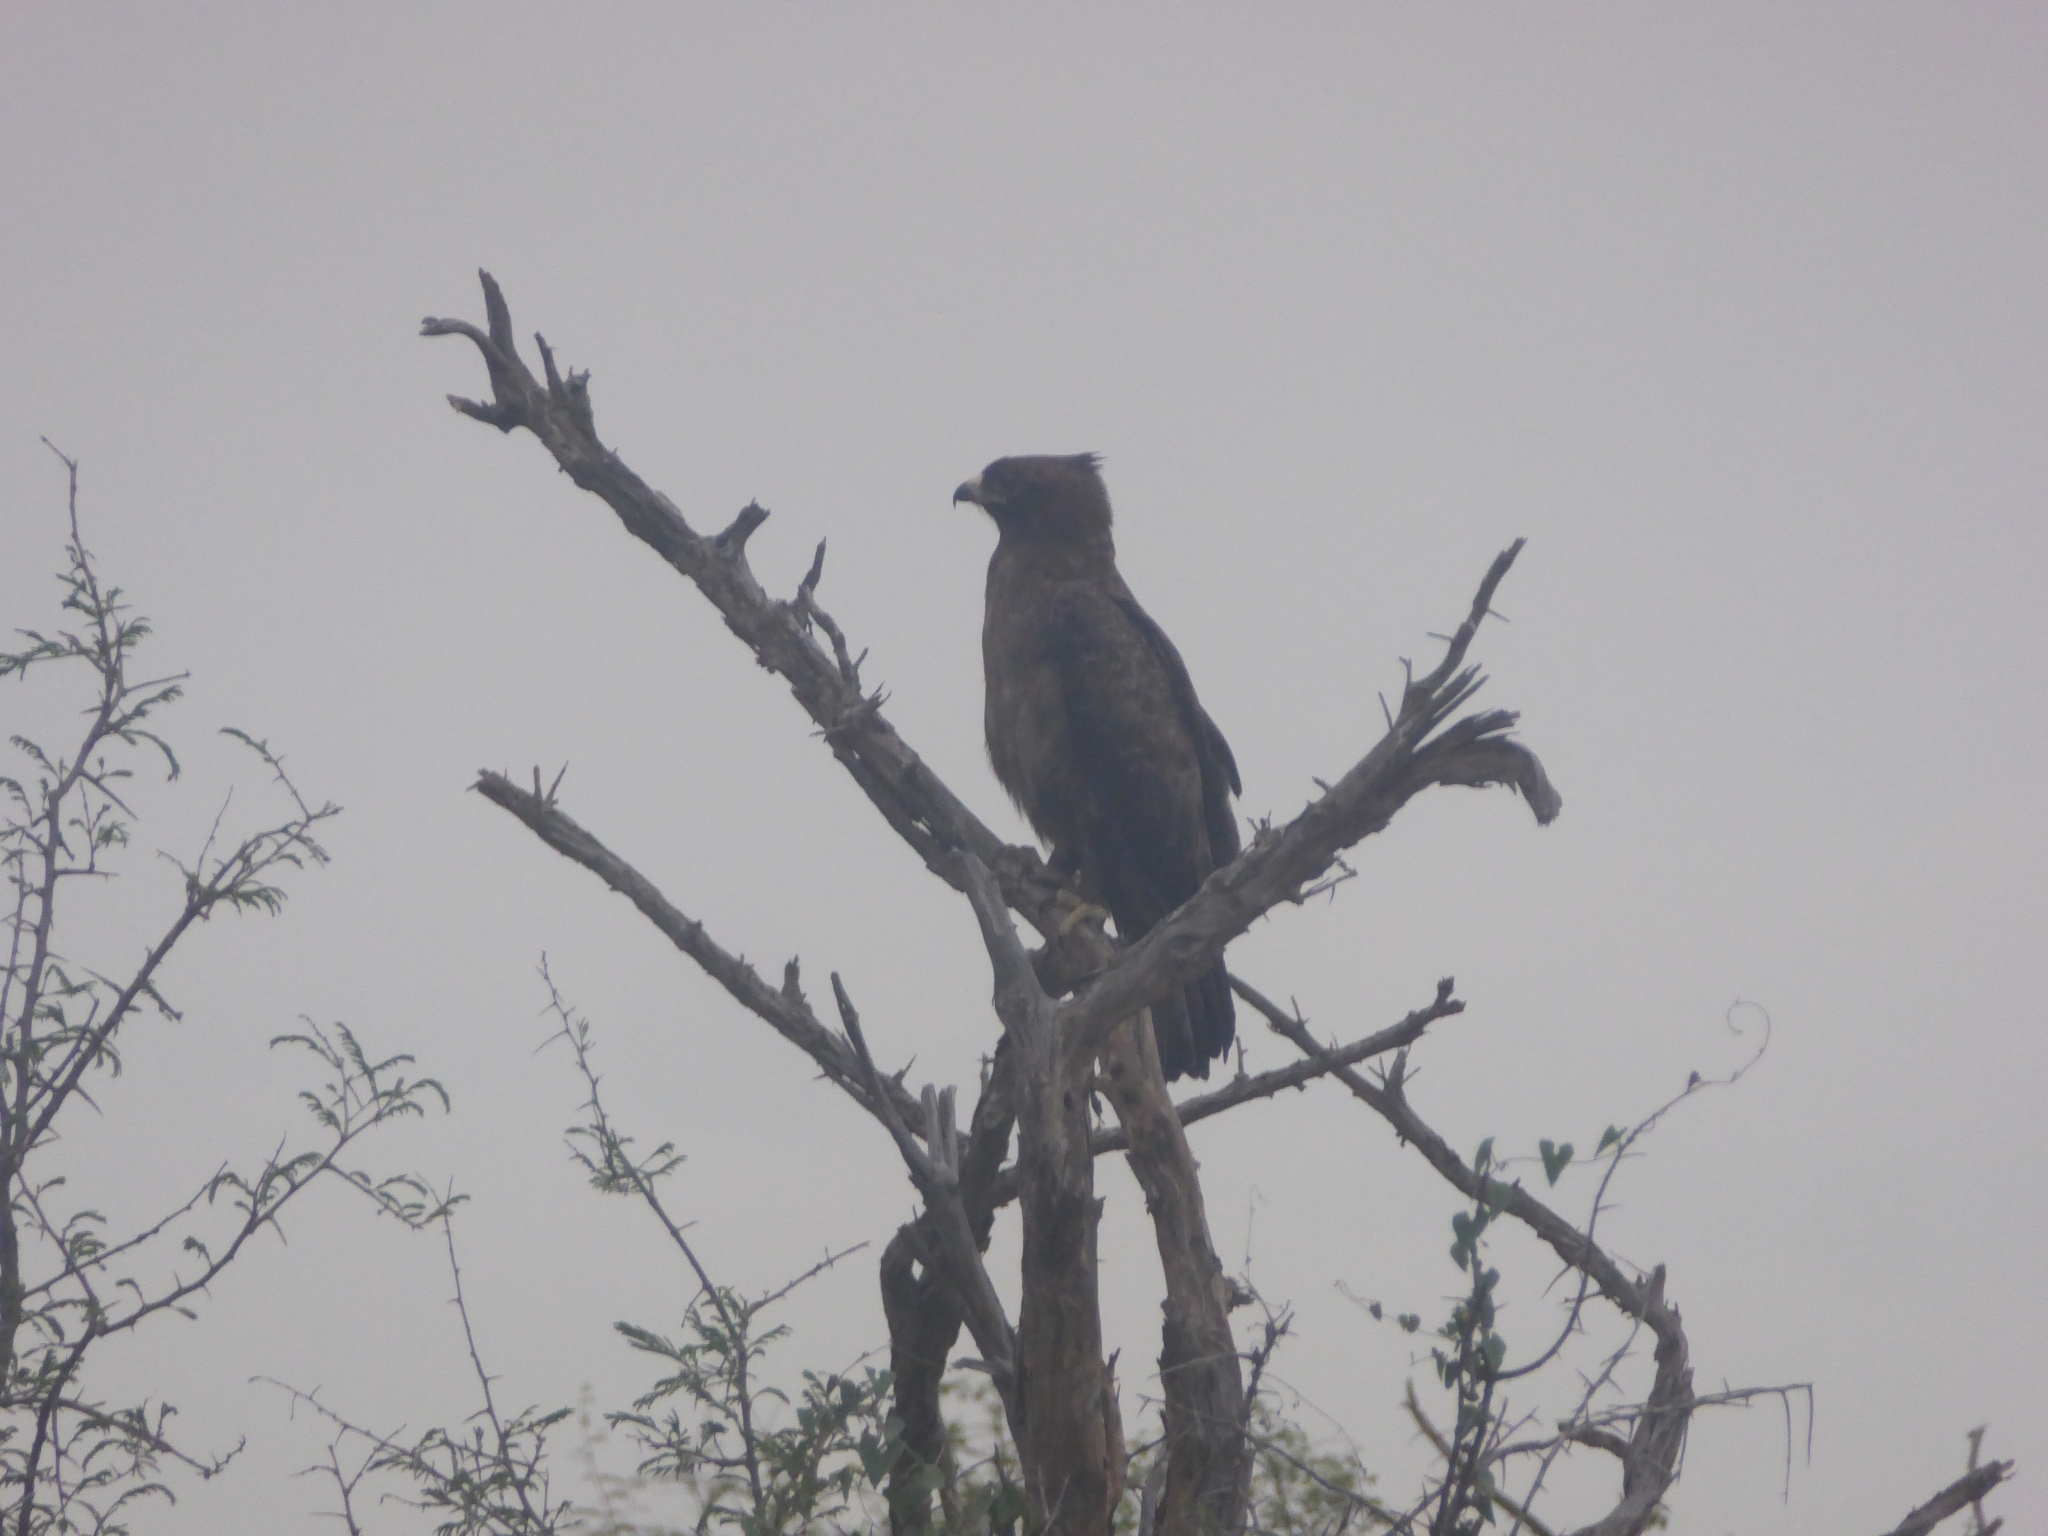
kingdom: Animalia
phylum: Chordata
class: Aves
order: Accipitriformes
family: Accipitridae
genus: Hieraaetus
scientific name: Hieraaetus wahlbergi
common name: Wahlberg's eagle
